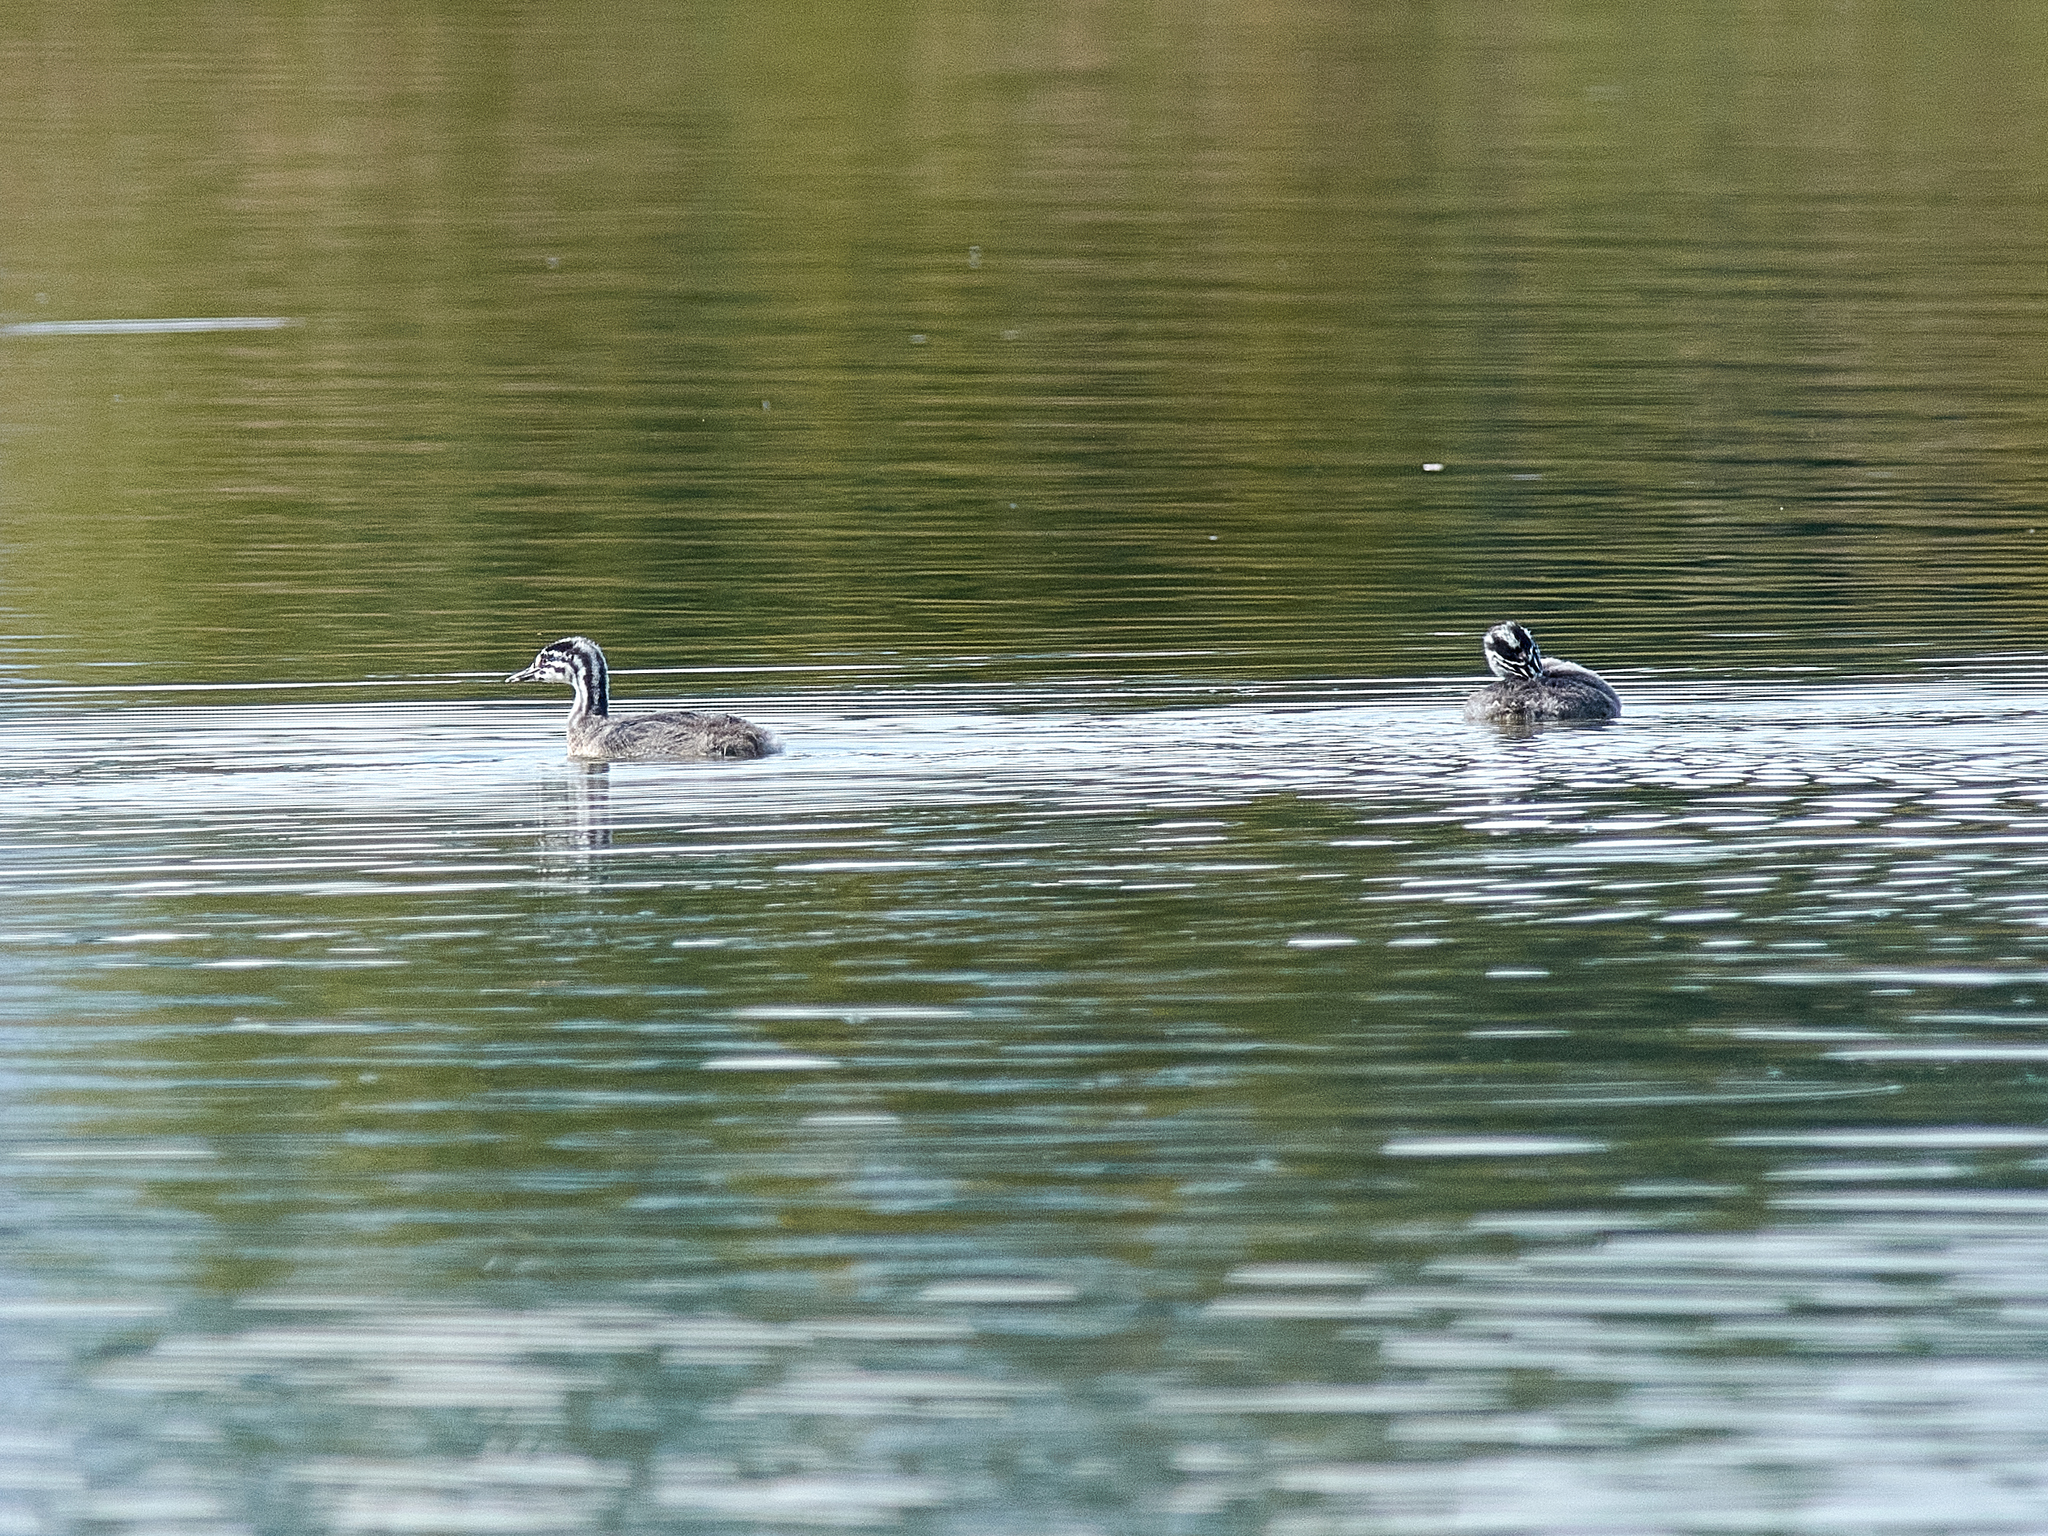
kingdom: Animalia
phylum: Chordata
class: Aves
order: Podicipediformes
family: Podicipedidae
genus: Podiceps
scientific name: Podiceps cristatus
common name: Great crested grebe
